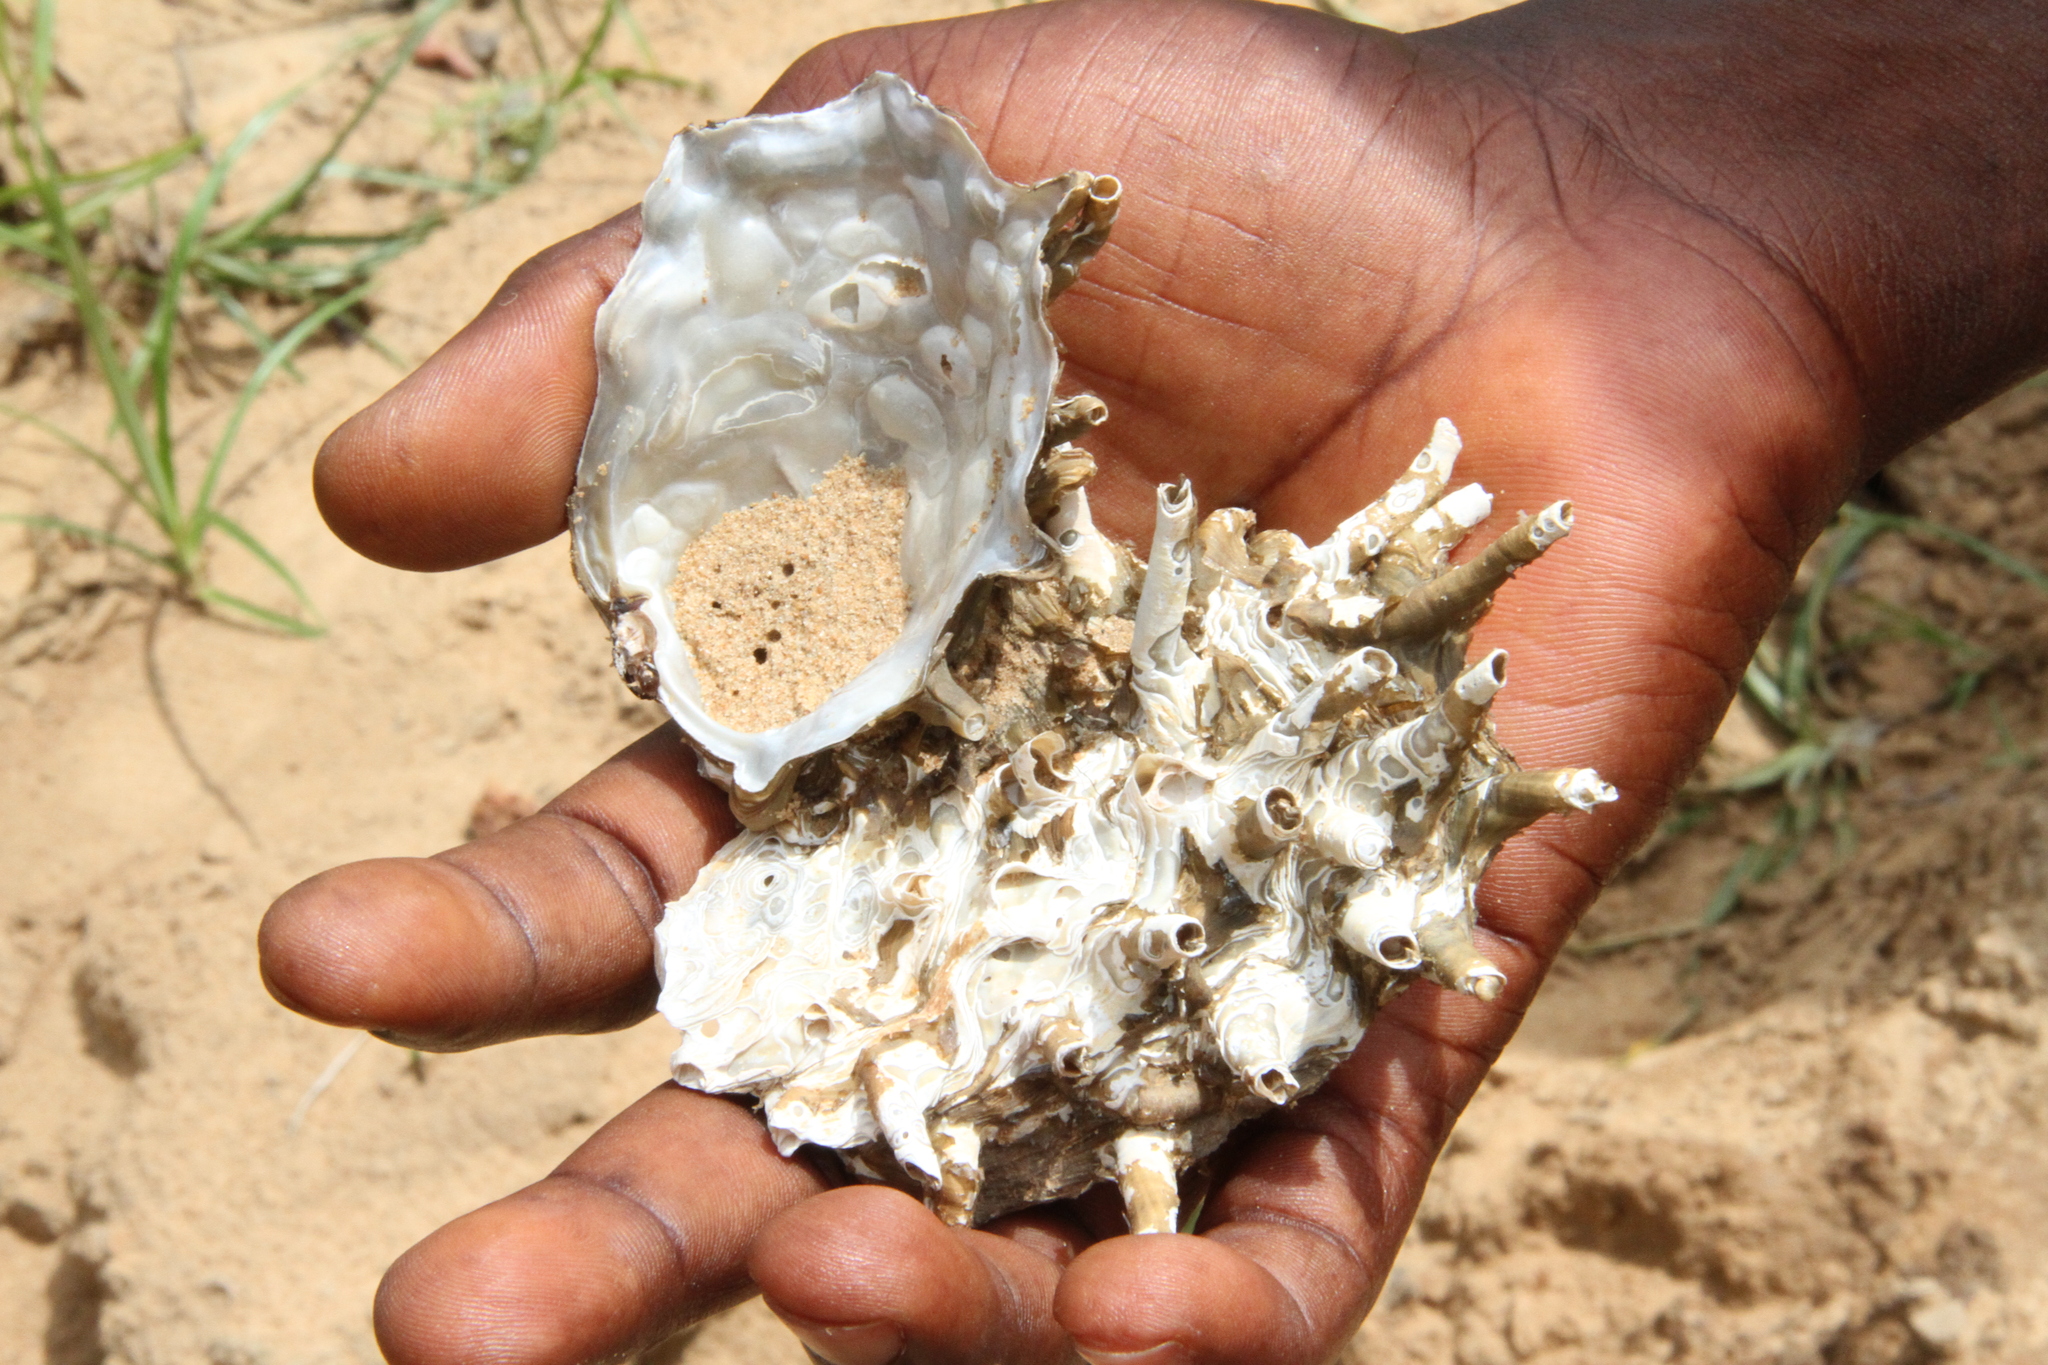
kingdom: Animalia
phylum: Mollusca
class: Bivalvia
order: Unionida
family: Etheriidae
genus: Etheria
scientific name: Etheria elliptica
